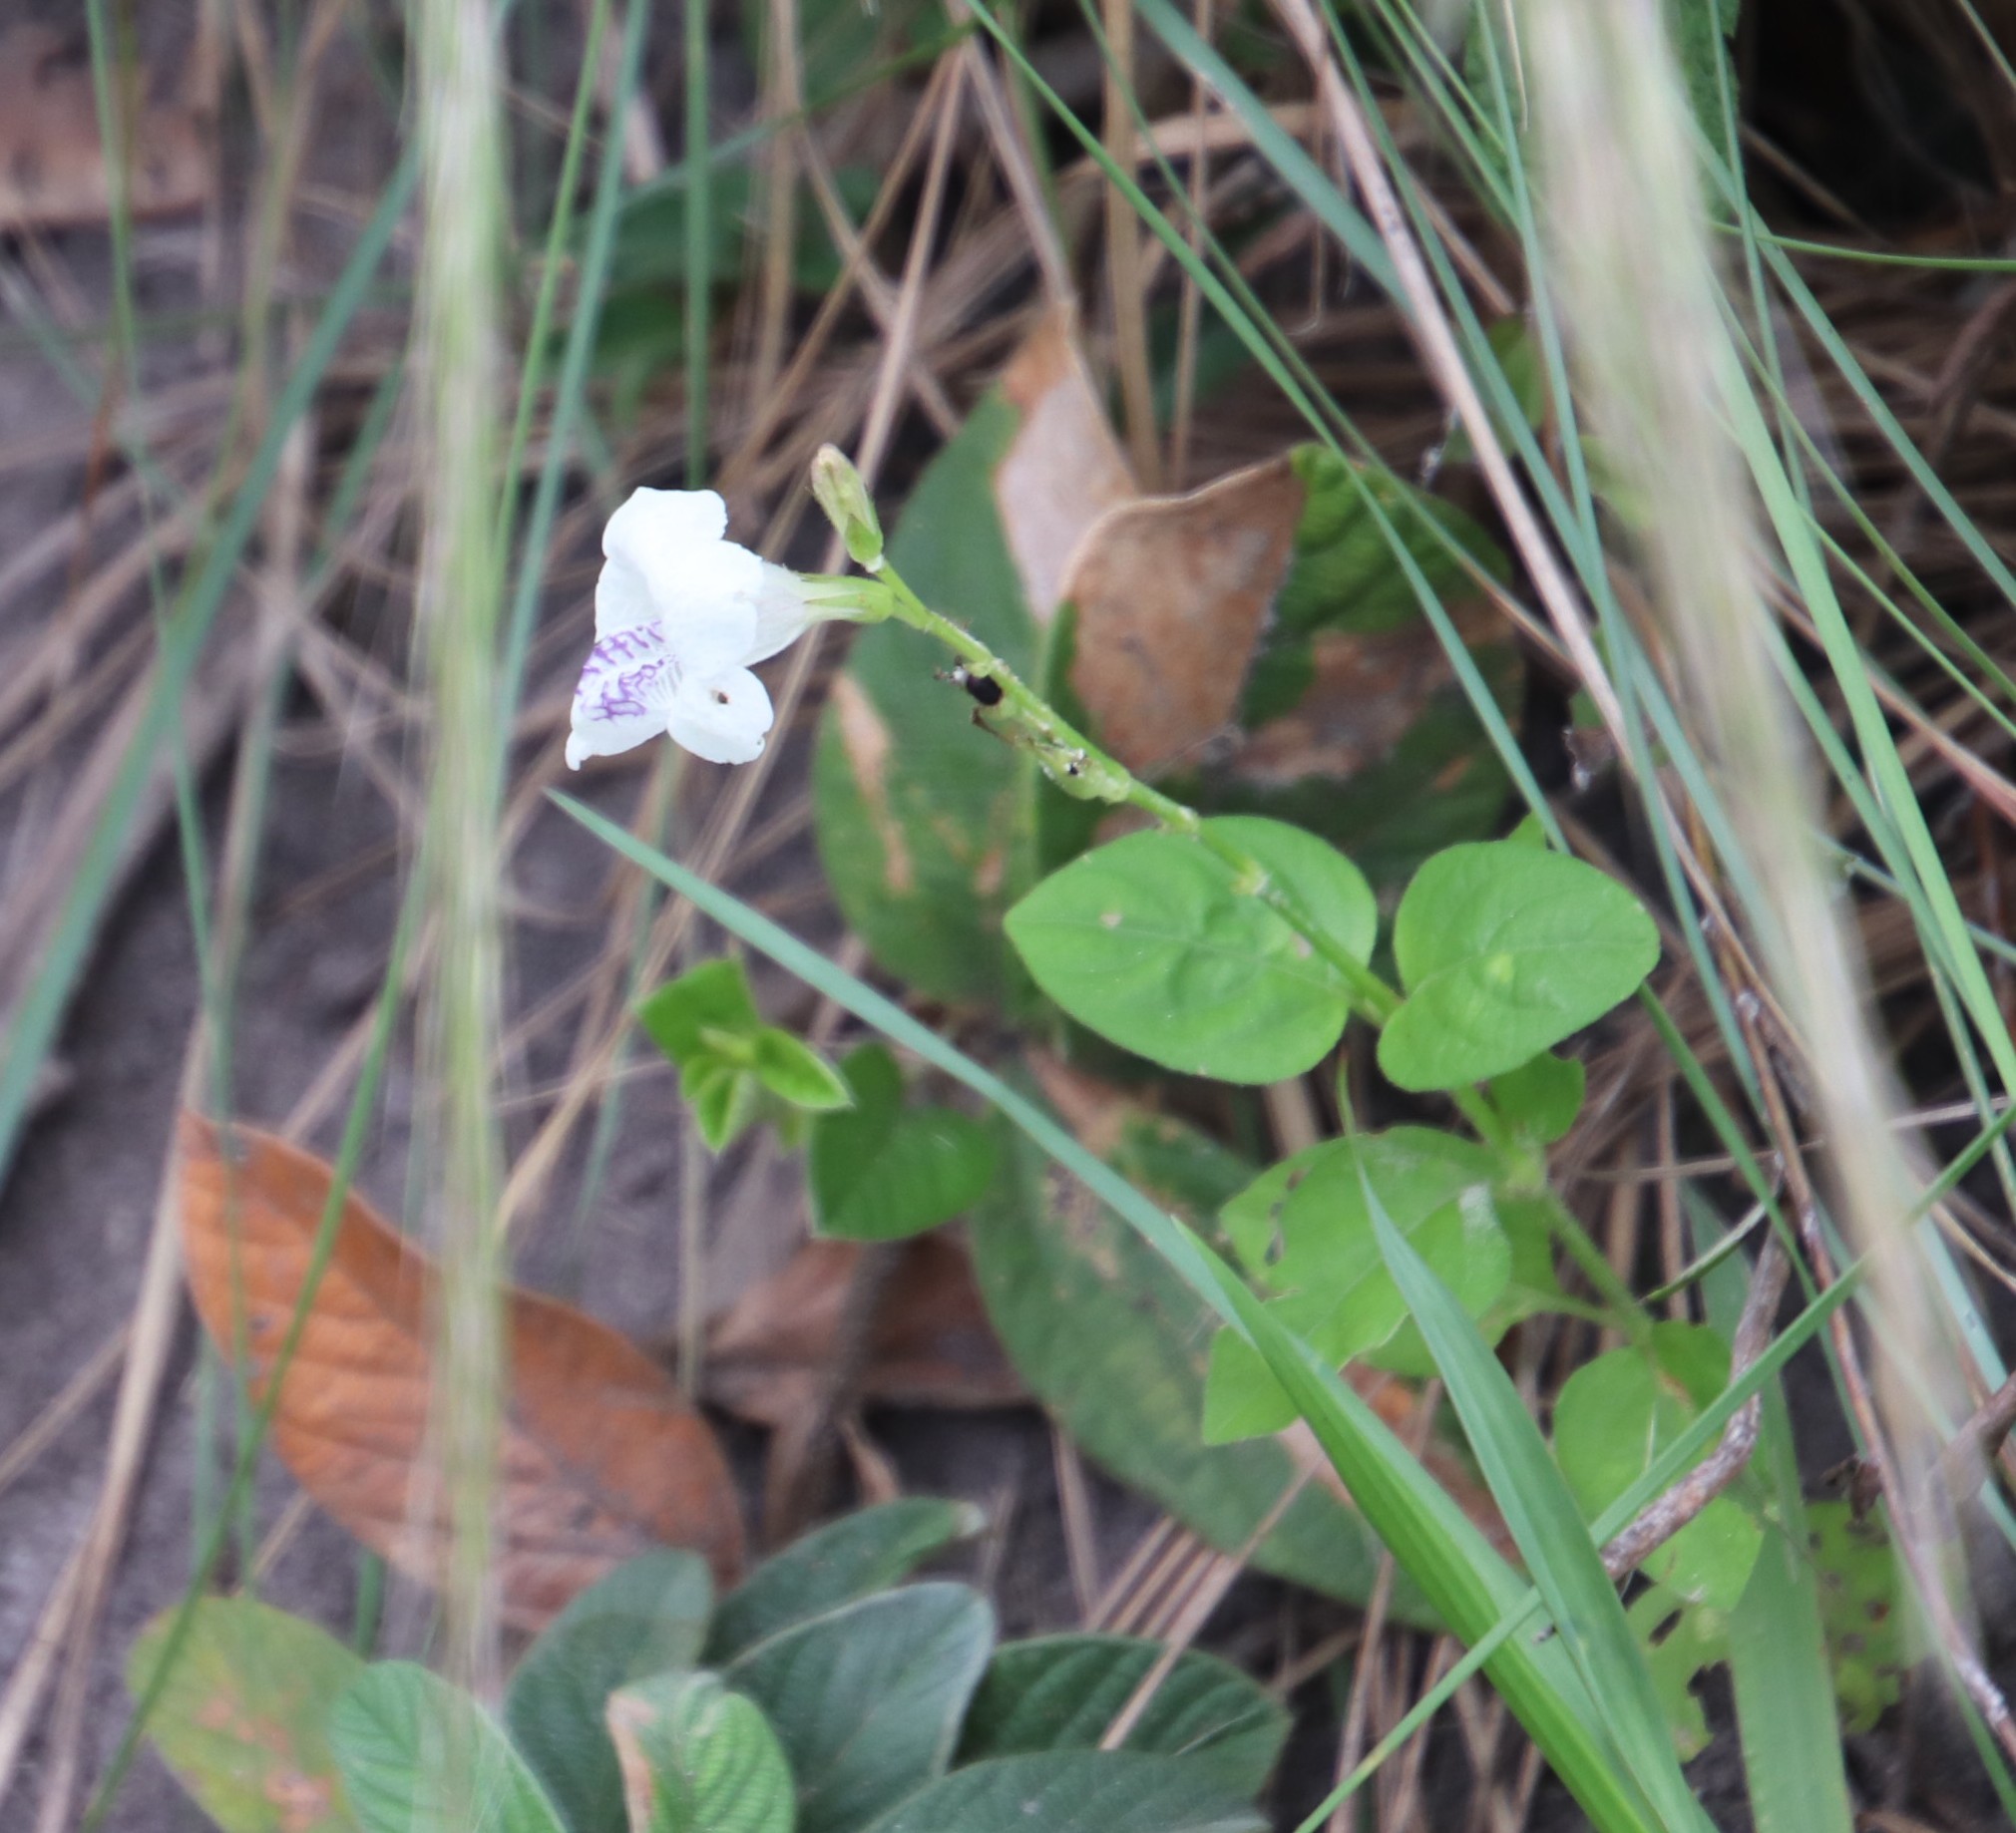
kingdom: Plantae
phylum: Tracheophyta
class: Magnoliopsida
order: Lamiales
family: Acanthaceae
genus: Asystasia
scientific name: Asystasia intrusa
